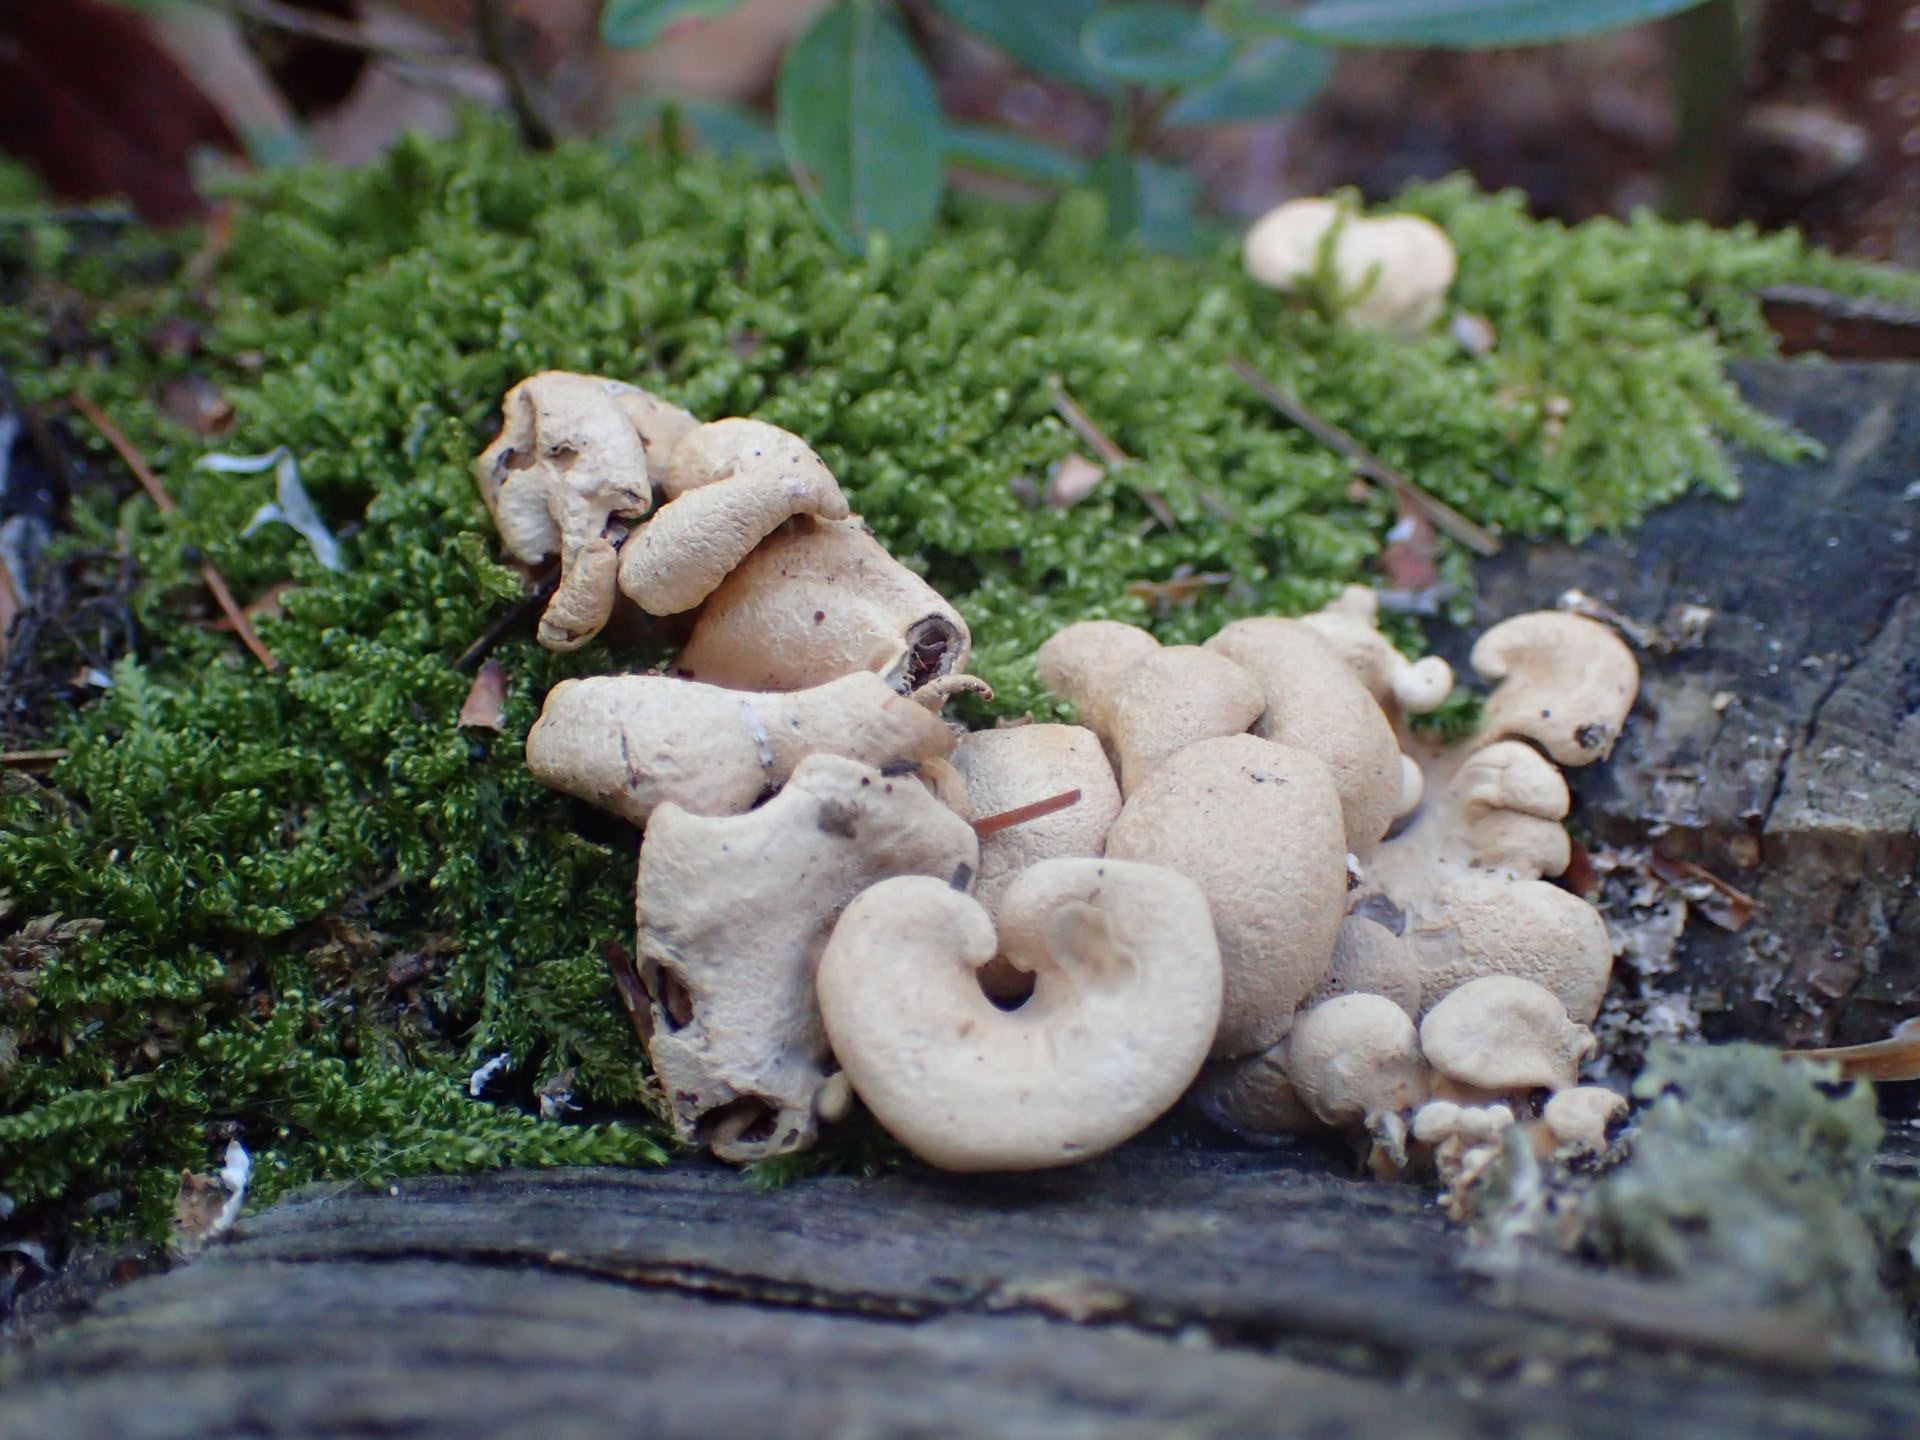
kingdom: Fungi
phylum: Basidiomycota
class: Agaricomycetes
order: Agaricales
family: Mycenaceae
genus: Panellus
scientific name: Panellus stipticus
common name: Bitter oysterling
